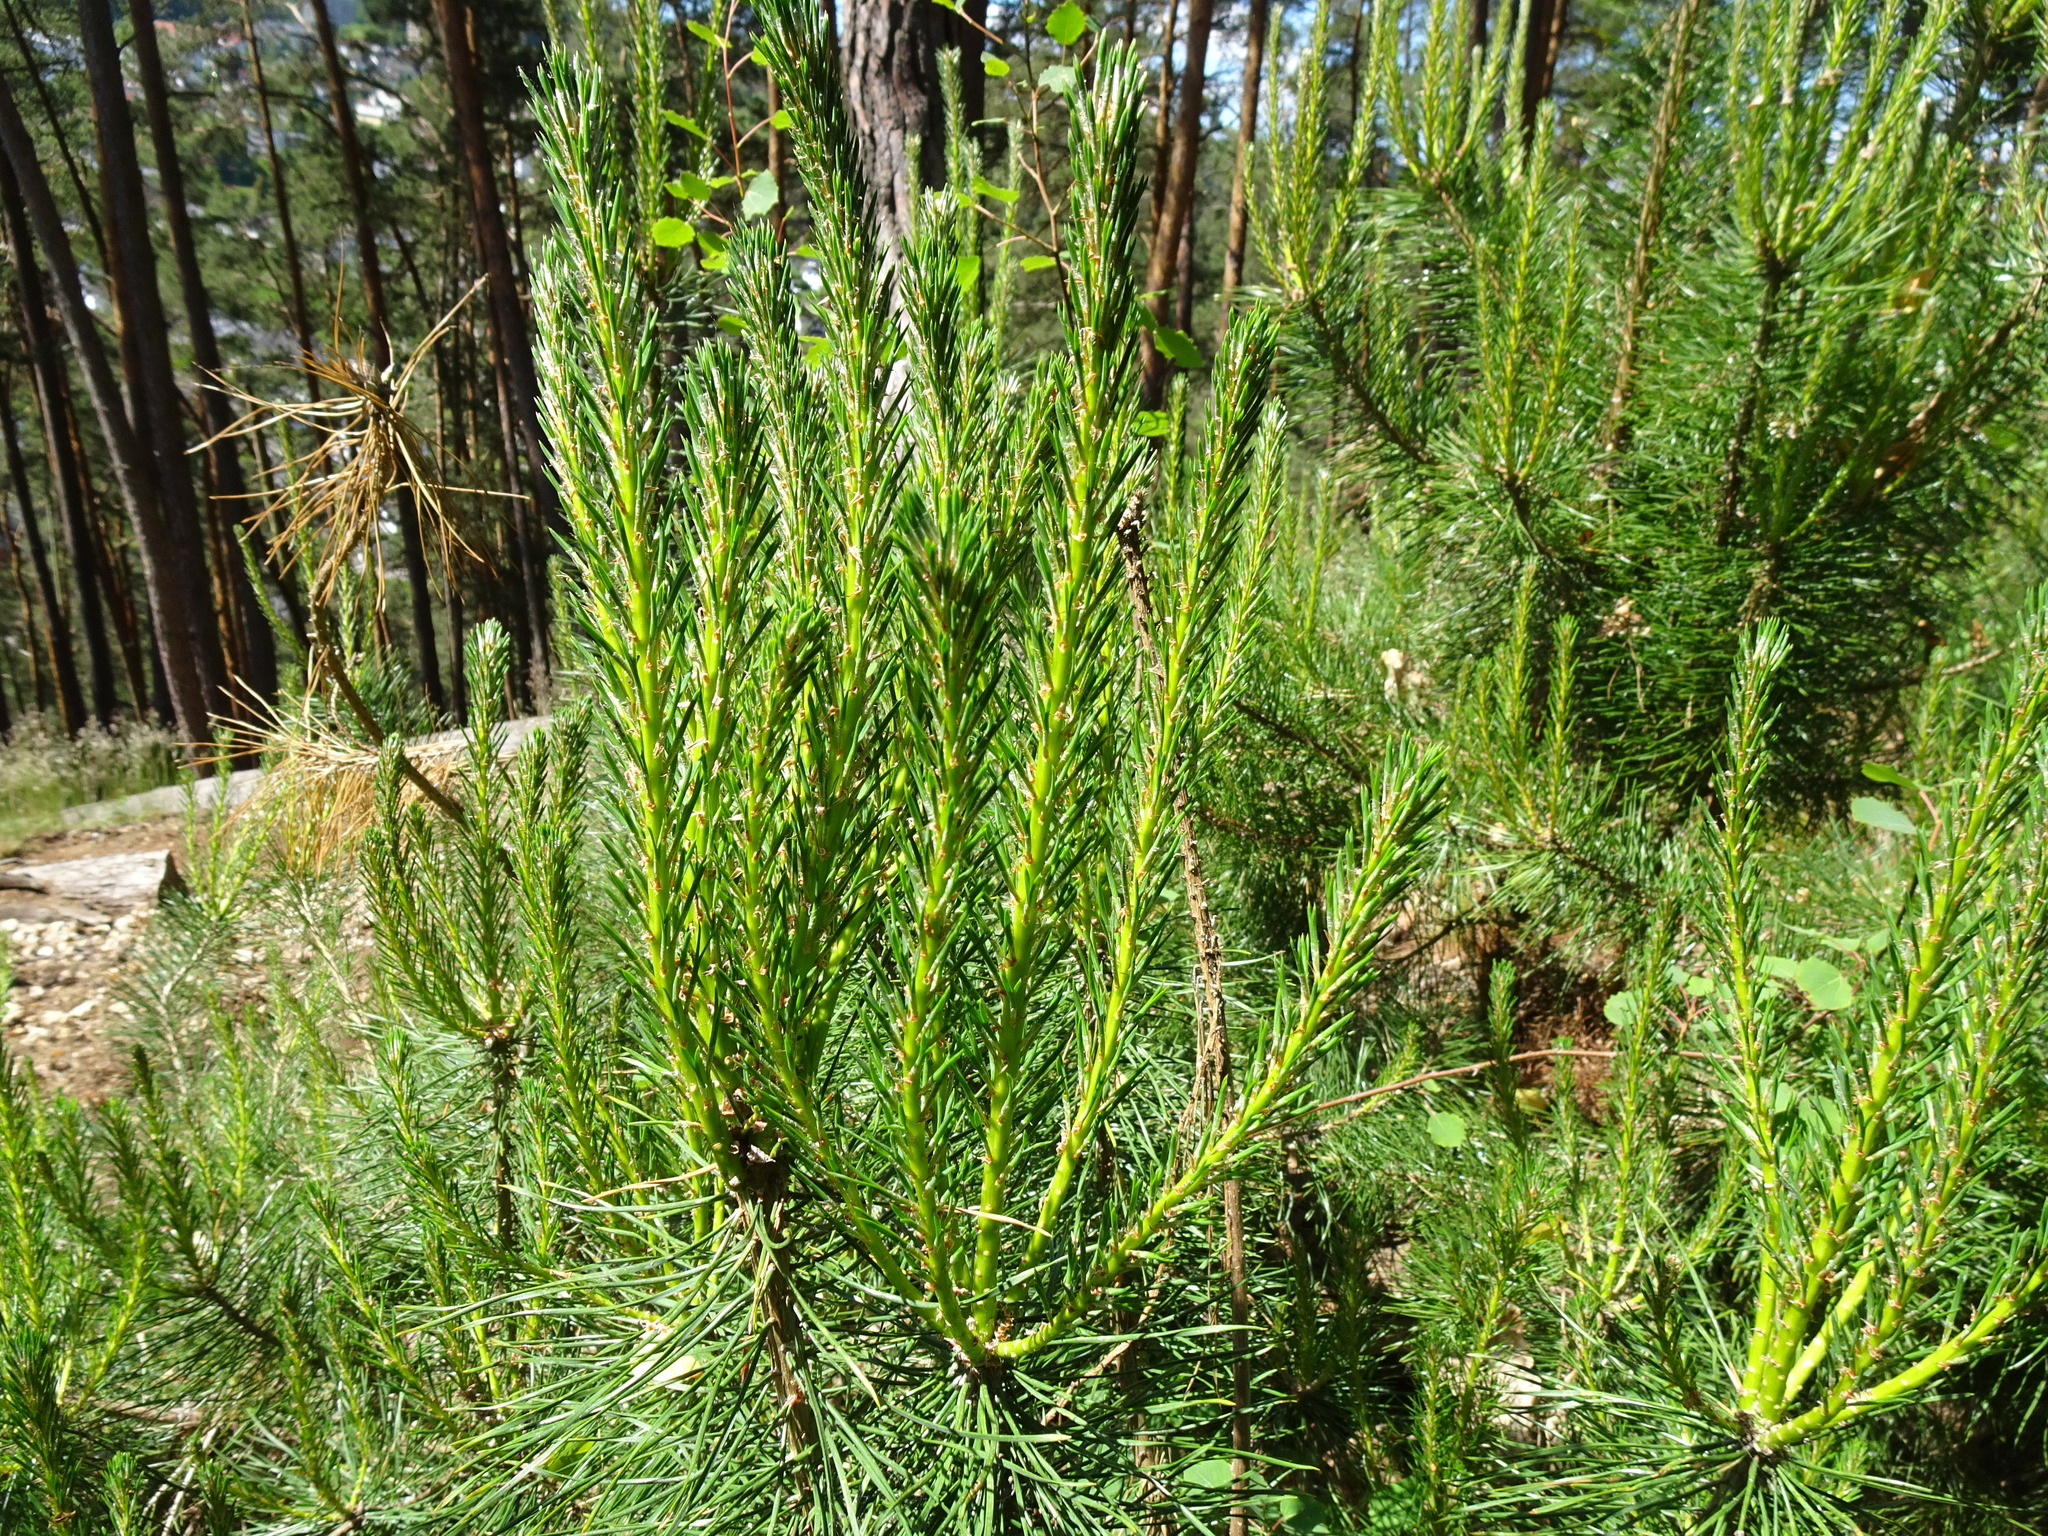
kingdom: Plantae
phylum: Tracheophyta
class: Pinopsida
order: Pinales
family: Pinaceae
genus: Pinus
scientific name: Pinus sylvestris
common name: Scots pine
